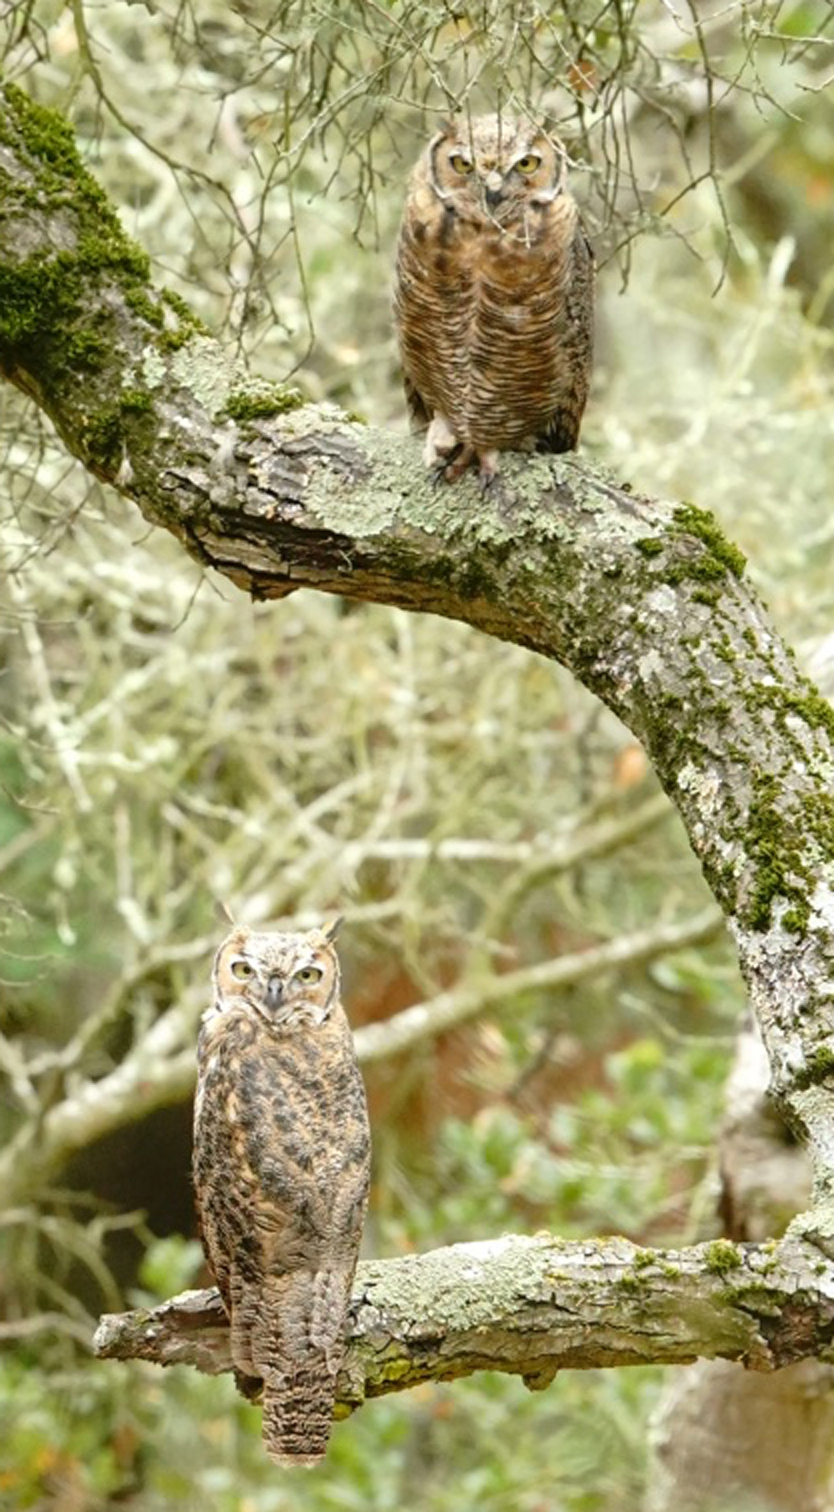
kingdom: Animalia
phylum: Chordata
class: Aves
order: Strigiformes
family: Strigidae
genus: Bubo
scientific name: Bubo virginianus
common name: Great horned owl
